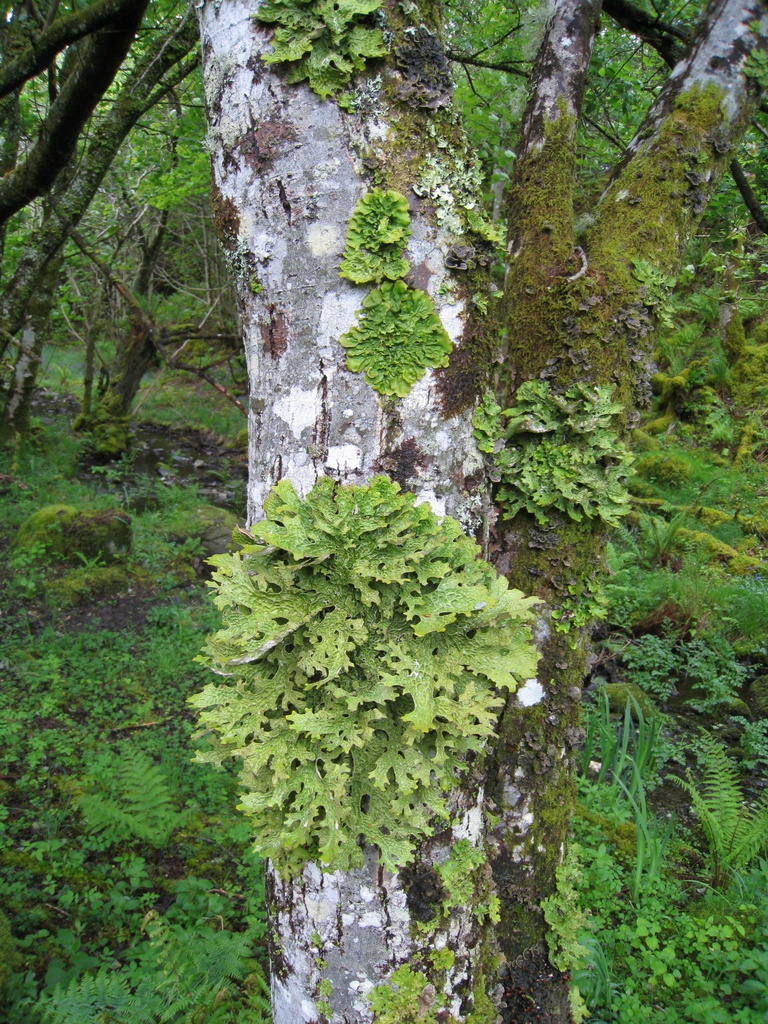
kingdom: Fungi
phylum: Ascomycota
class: Lecanoromycetes
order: Peltigerales
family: Lobariaceae
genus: Lobaria
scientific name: Lobaria pulmonaria
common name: Lungwort
